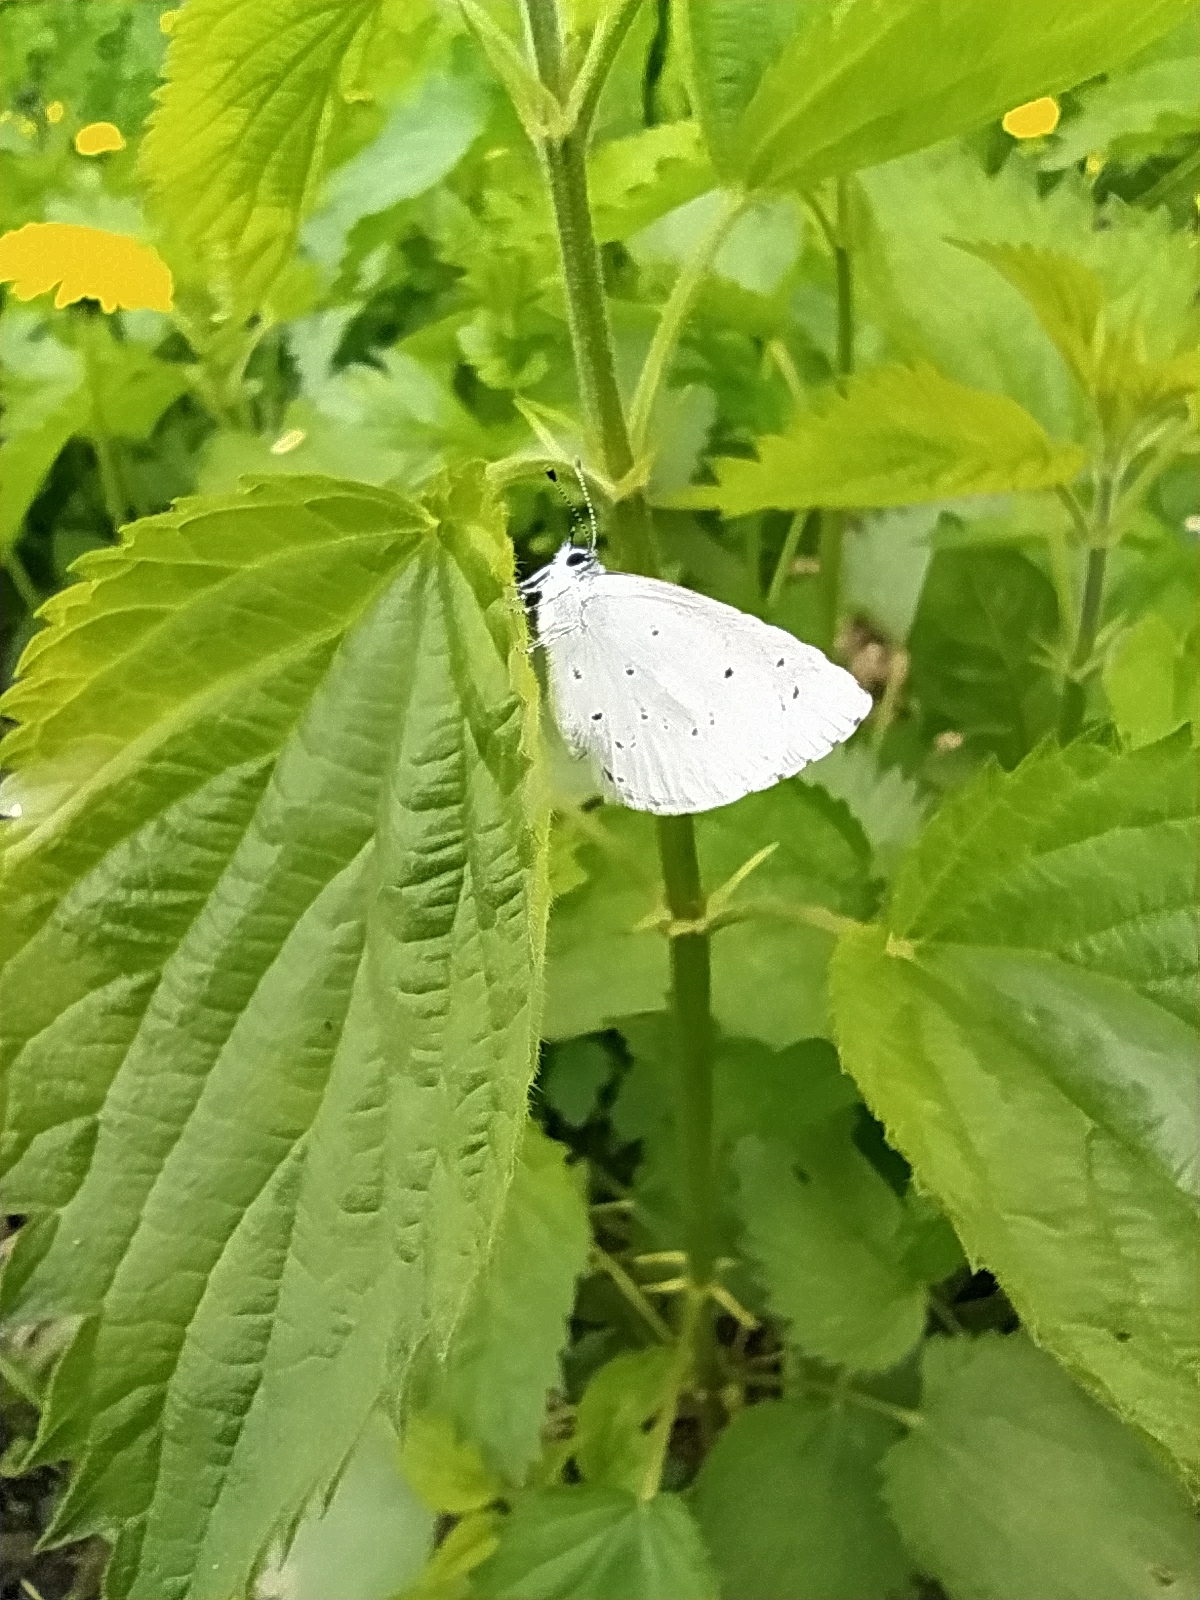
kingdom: Animalia
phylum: Arthropoda
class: Insecta
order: Lepidoptera
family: Lycaenidae
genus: Celastrina
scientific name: Celastrina argiolus
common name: Holly blue
